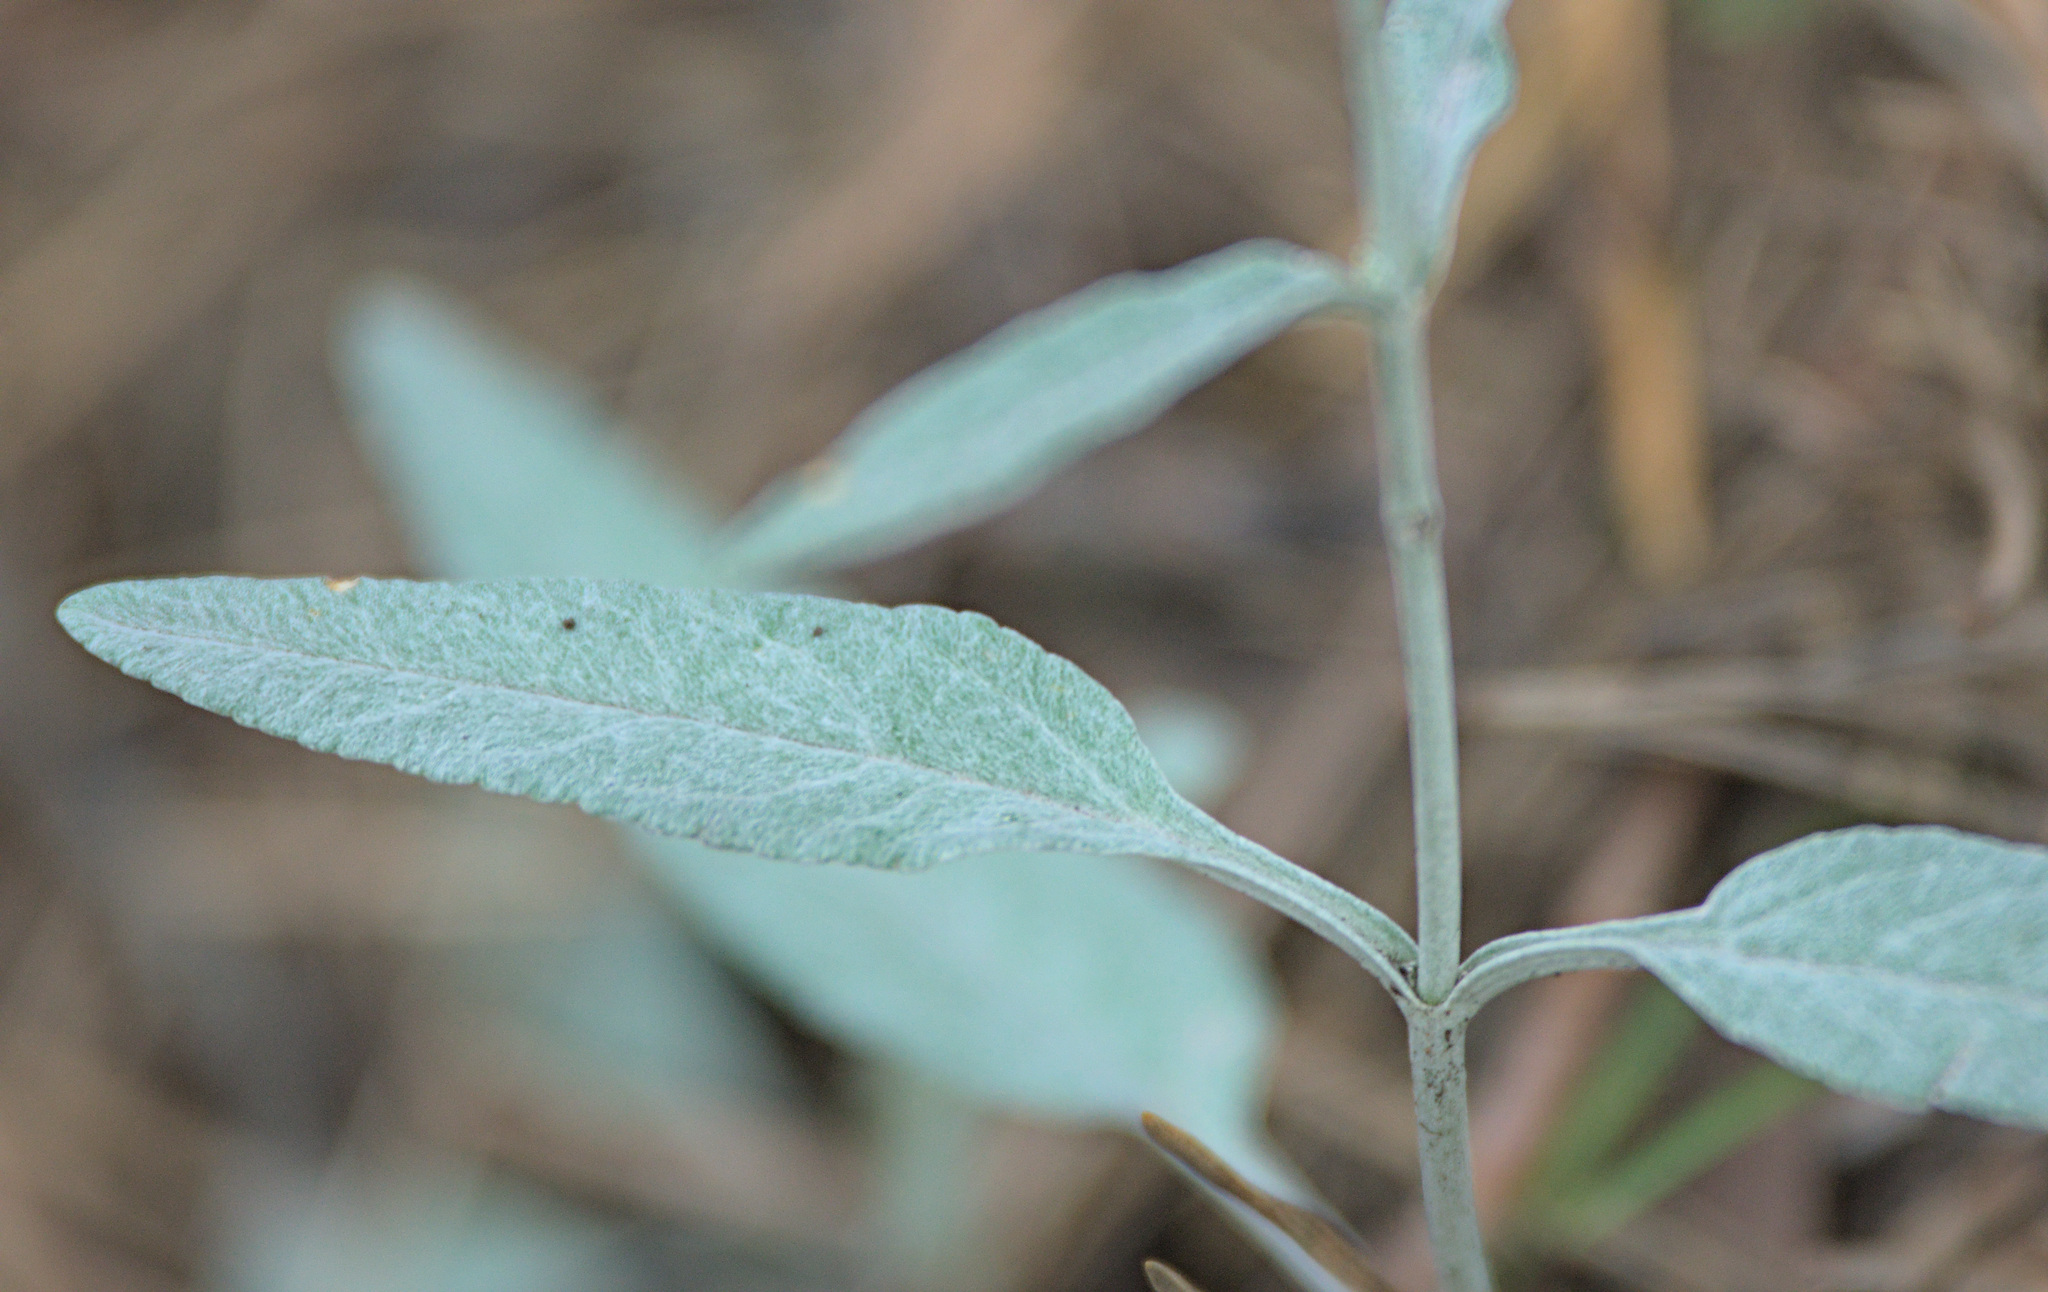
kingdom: Plantae
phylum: Tracheophyta
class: Magnoliopsida
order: Lamiales
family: Plantaginaceae
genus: Veronica
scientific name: Veronica incana
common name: Silver speedwell
